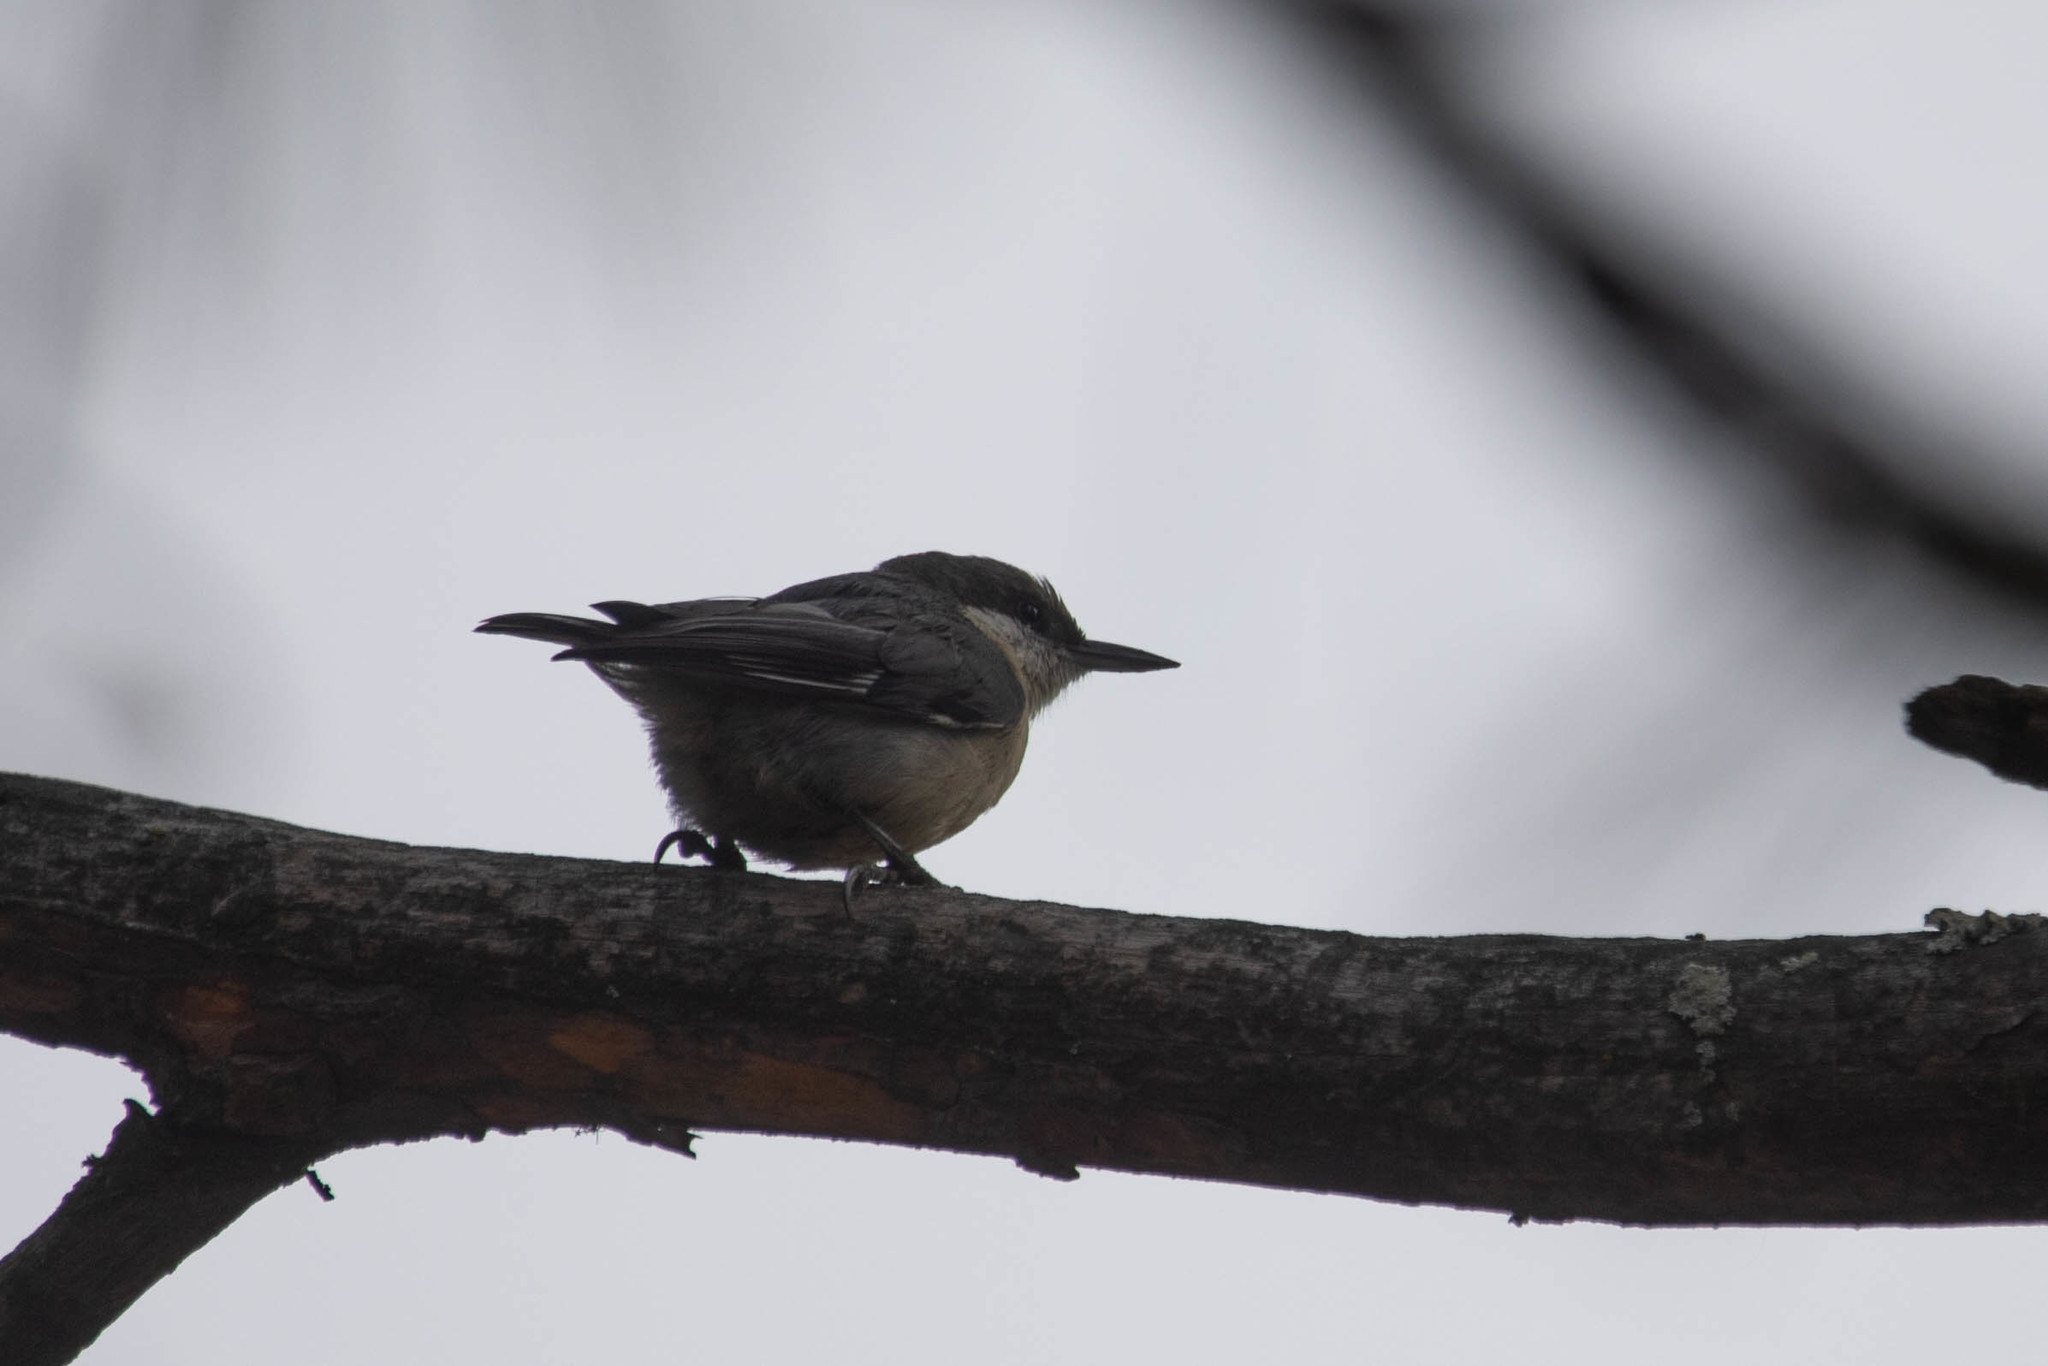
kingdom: Animalia
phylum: Chordata
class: Aves
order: Passeriformes
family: Sittidae
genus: Sitta
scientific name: Sitta pygmaea
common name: Pygmy nuthatch
